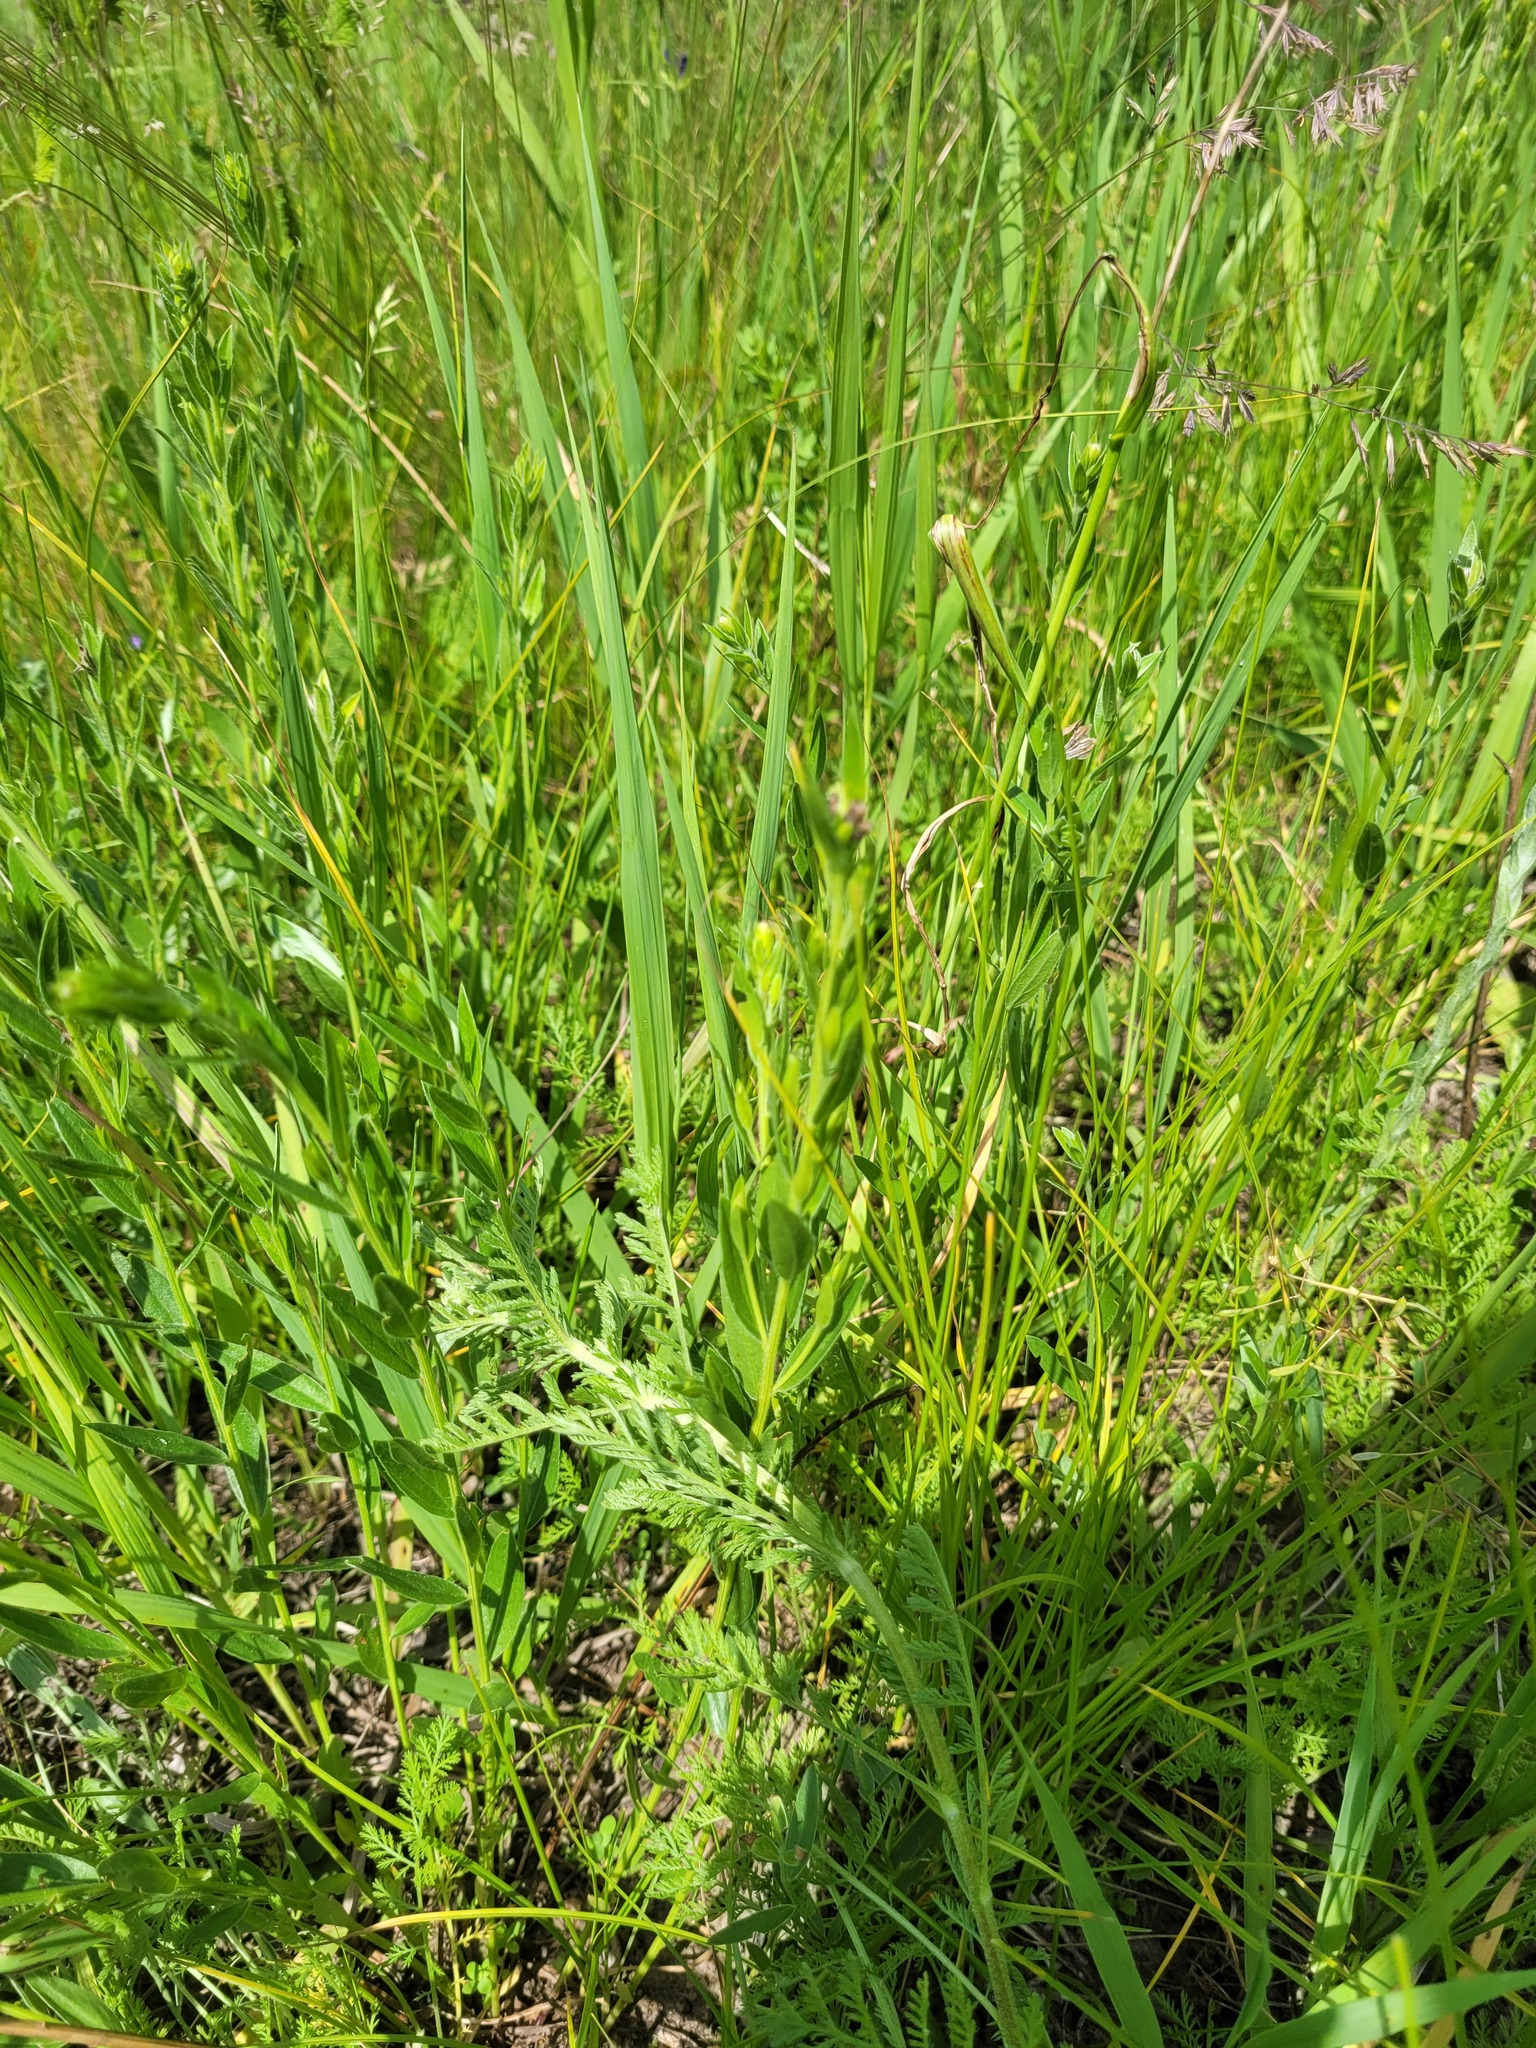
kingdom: Plantae
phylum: Tracheophyta
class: Magnoliopsida
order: Fabales
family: Fabaceae
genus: Genista
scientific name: Genista tinctoria
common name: Dyer's greenweed
